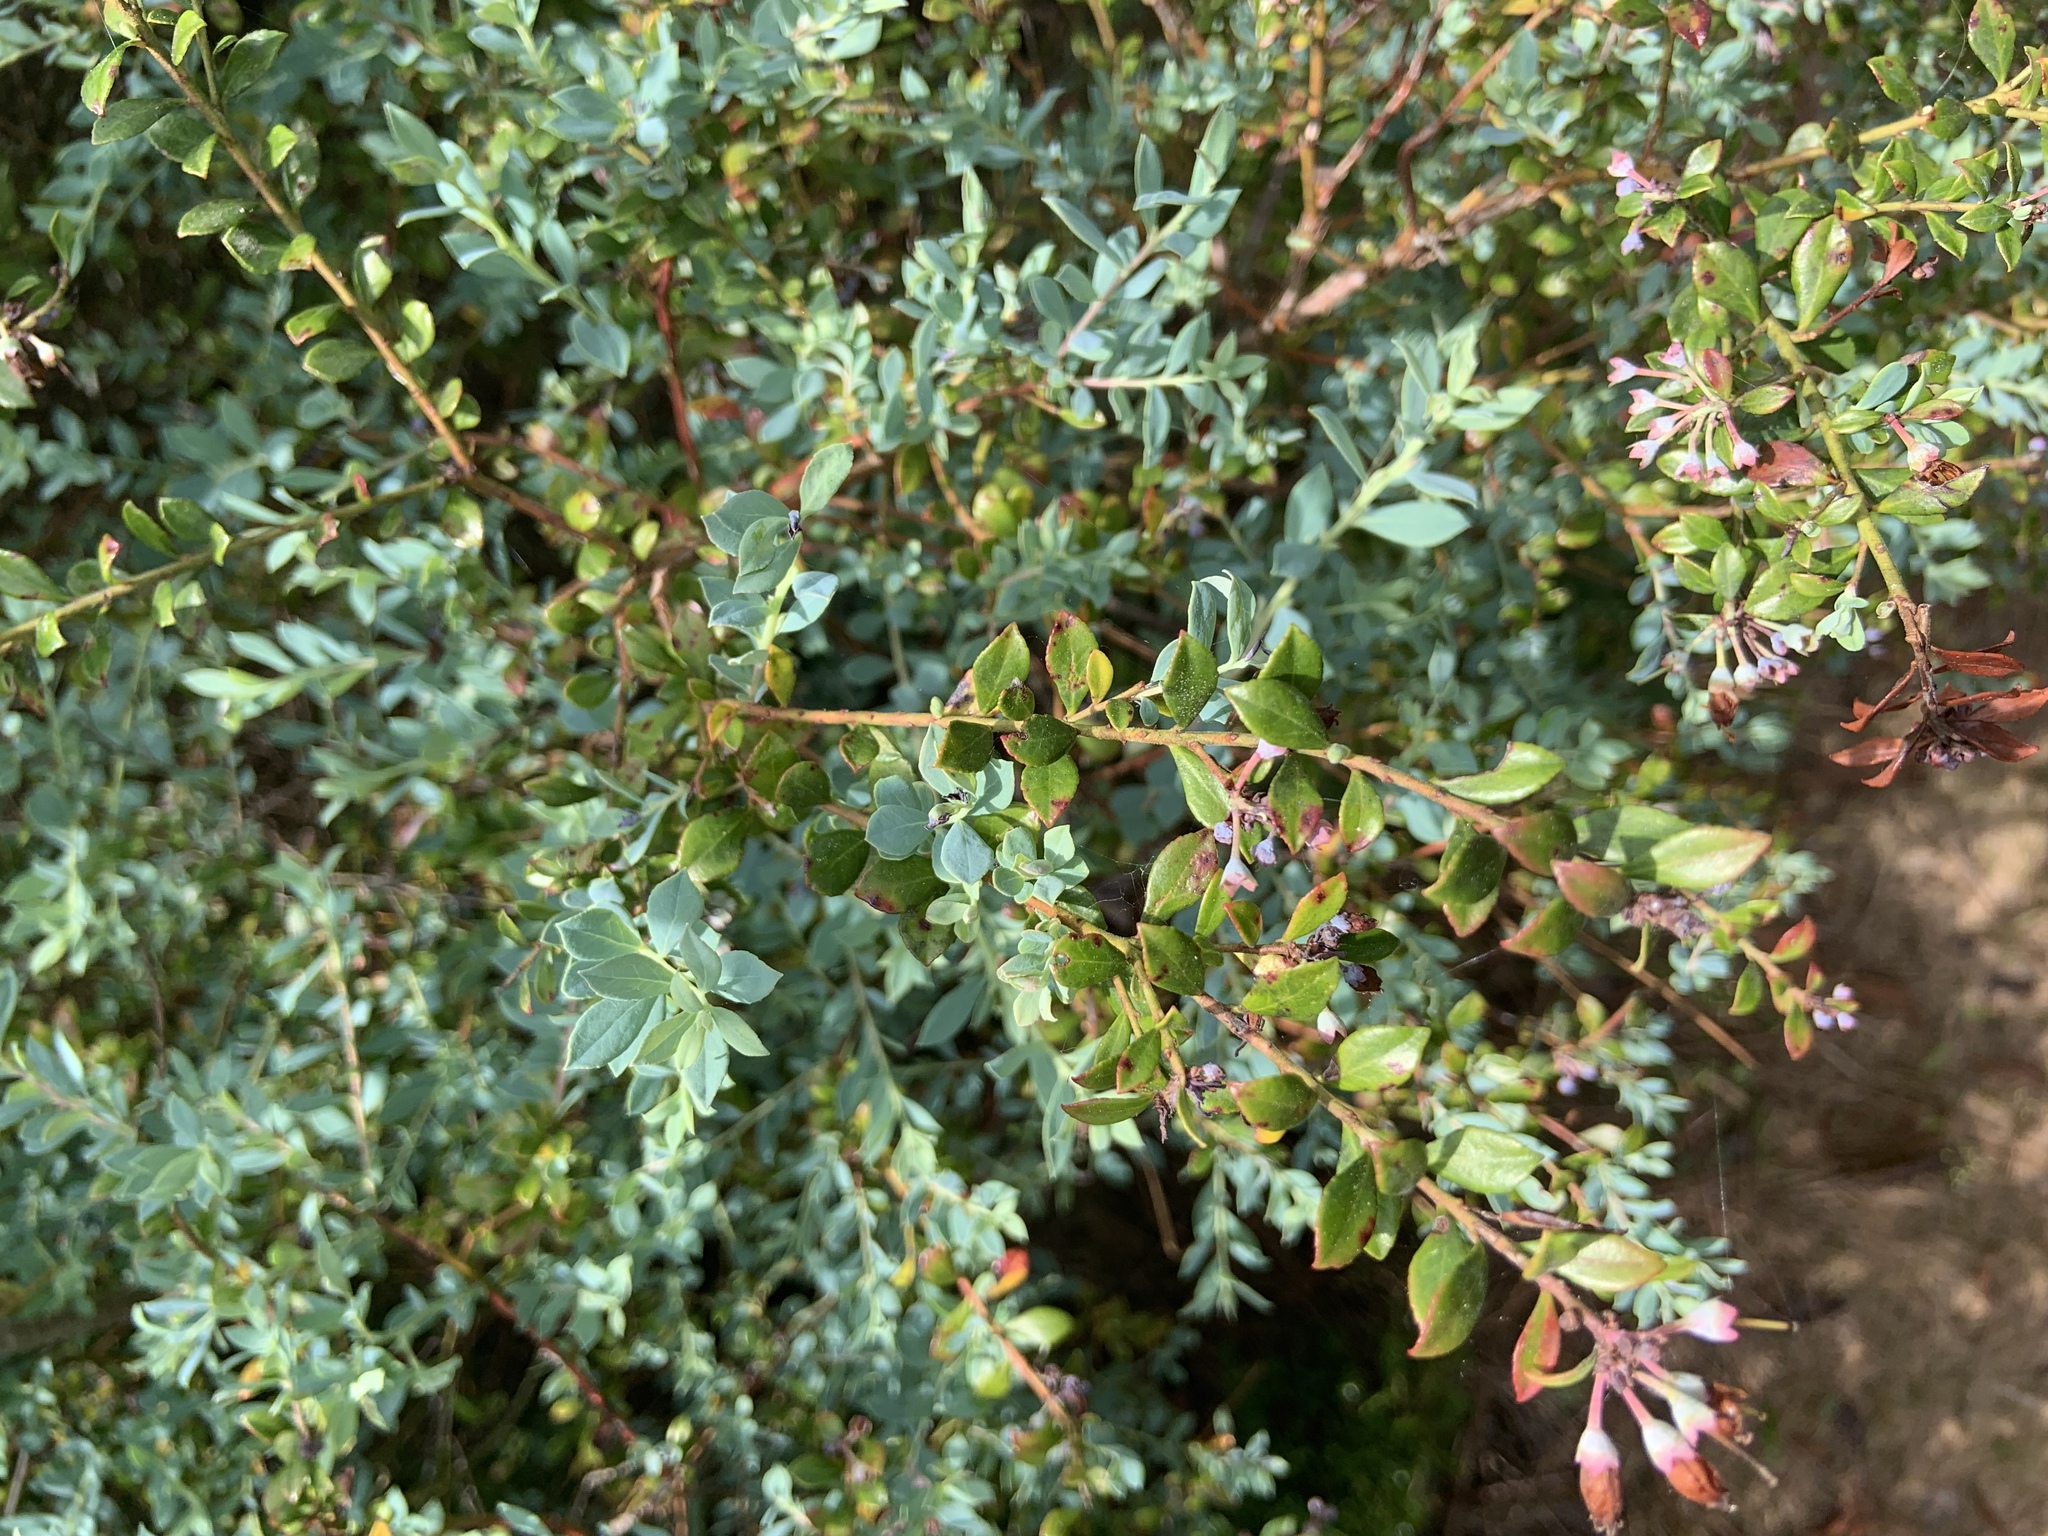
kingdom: Plantae
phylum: Tracheophyta
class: Magnoliopsida
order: Ericales
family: Ericaceae
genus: Vaccinium
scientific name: Vaccinium darrowii
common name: Darrow's blueberry
